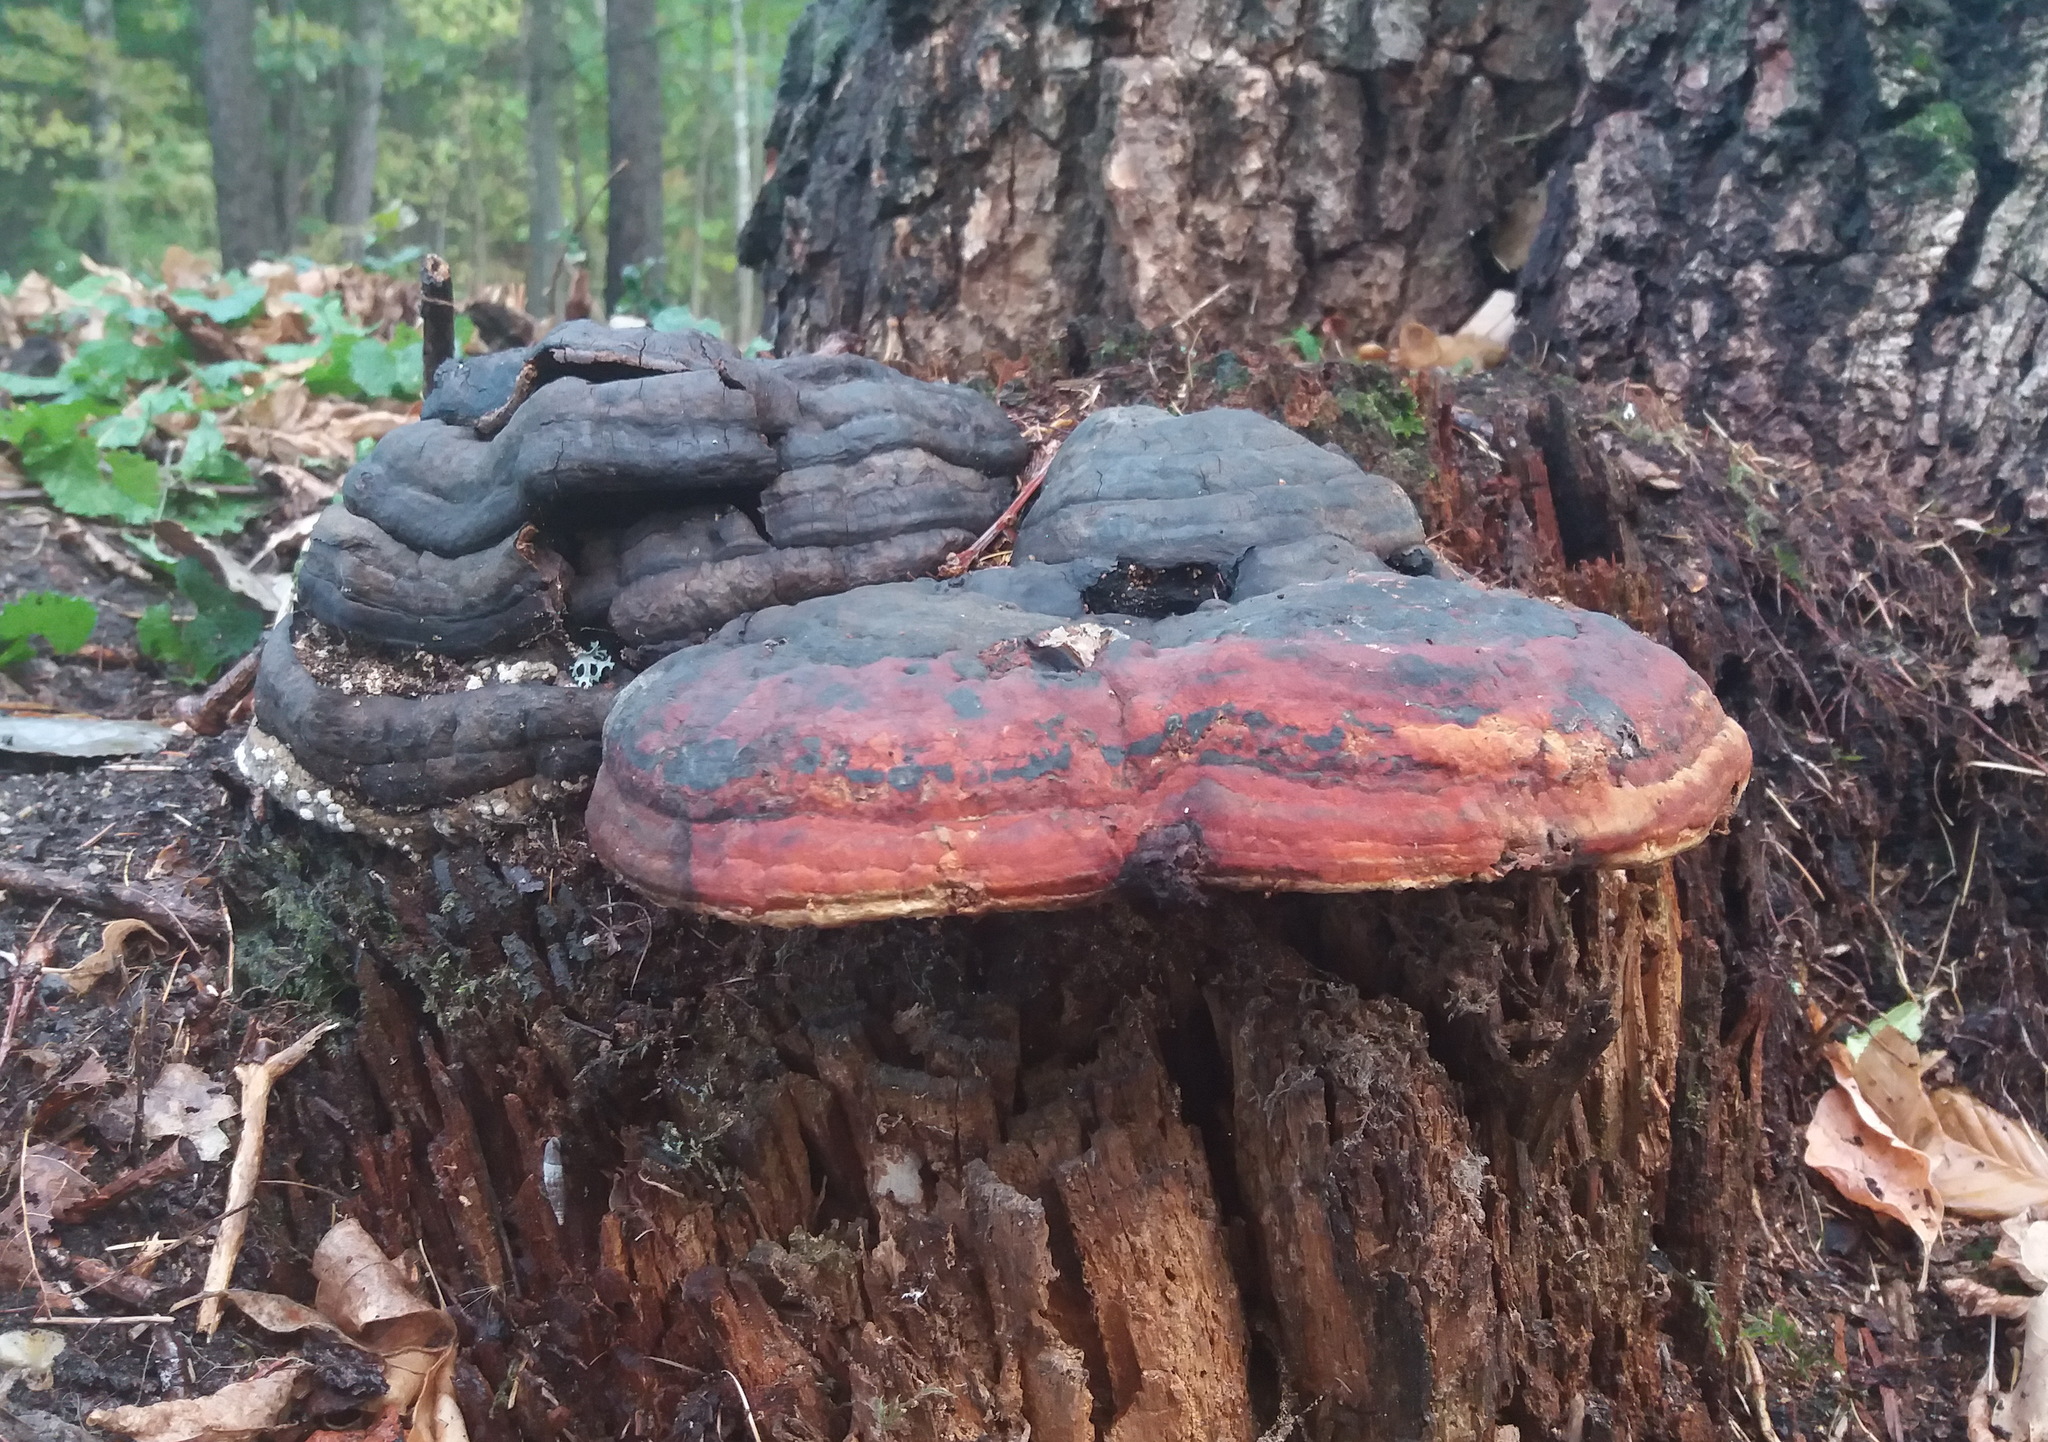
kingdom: Fungi
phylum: Basidiomycota
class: Agaricomycetes
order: Polyporales
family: Fomitopsidaceae
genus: Fomitopsis
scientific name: Fomitopsis pinicola
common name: Red-belted bracket
